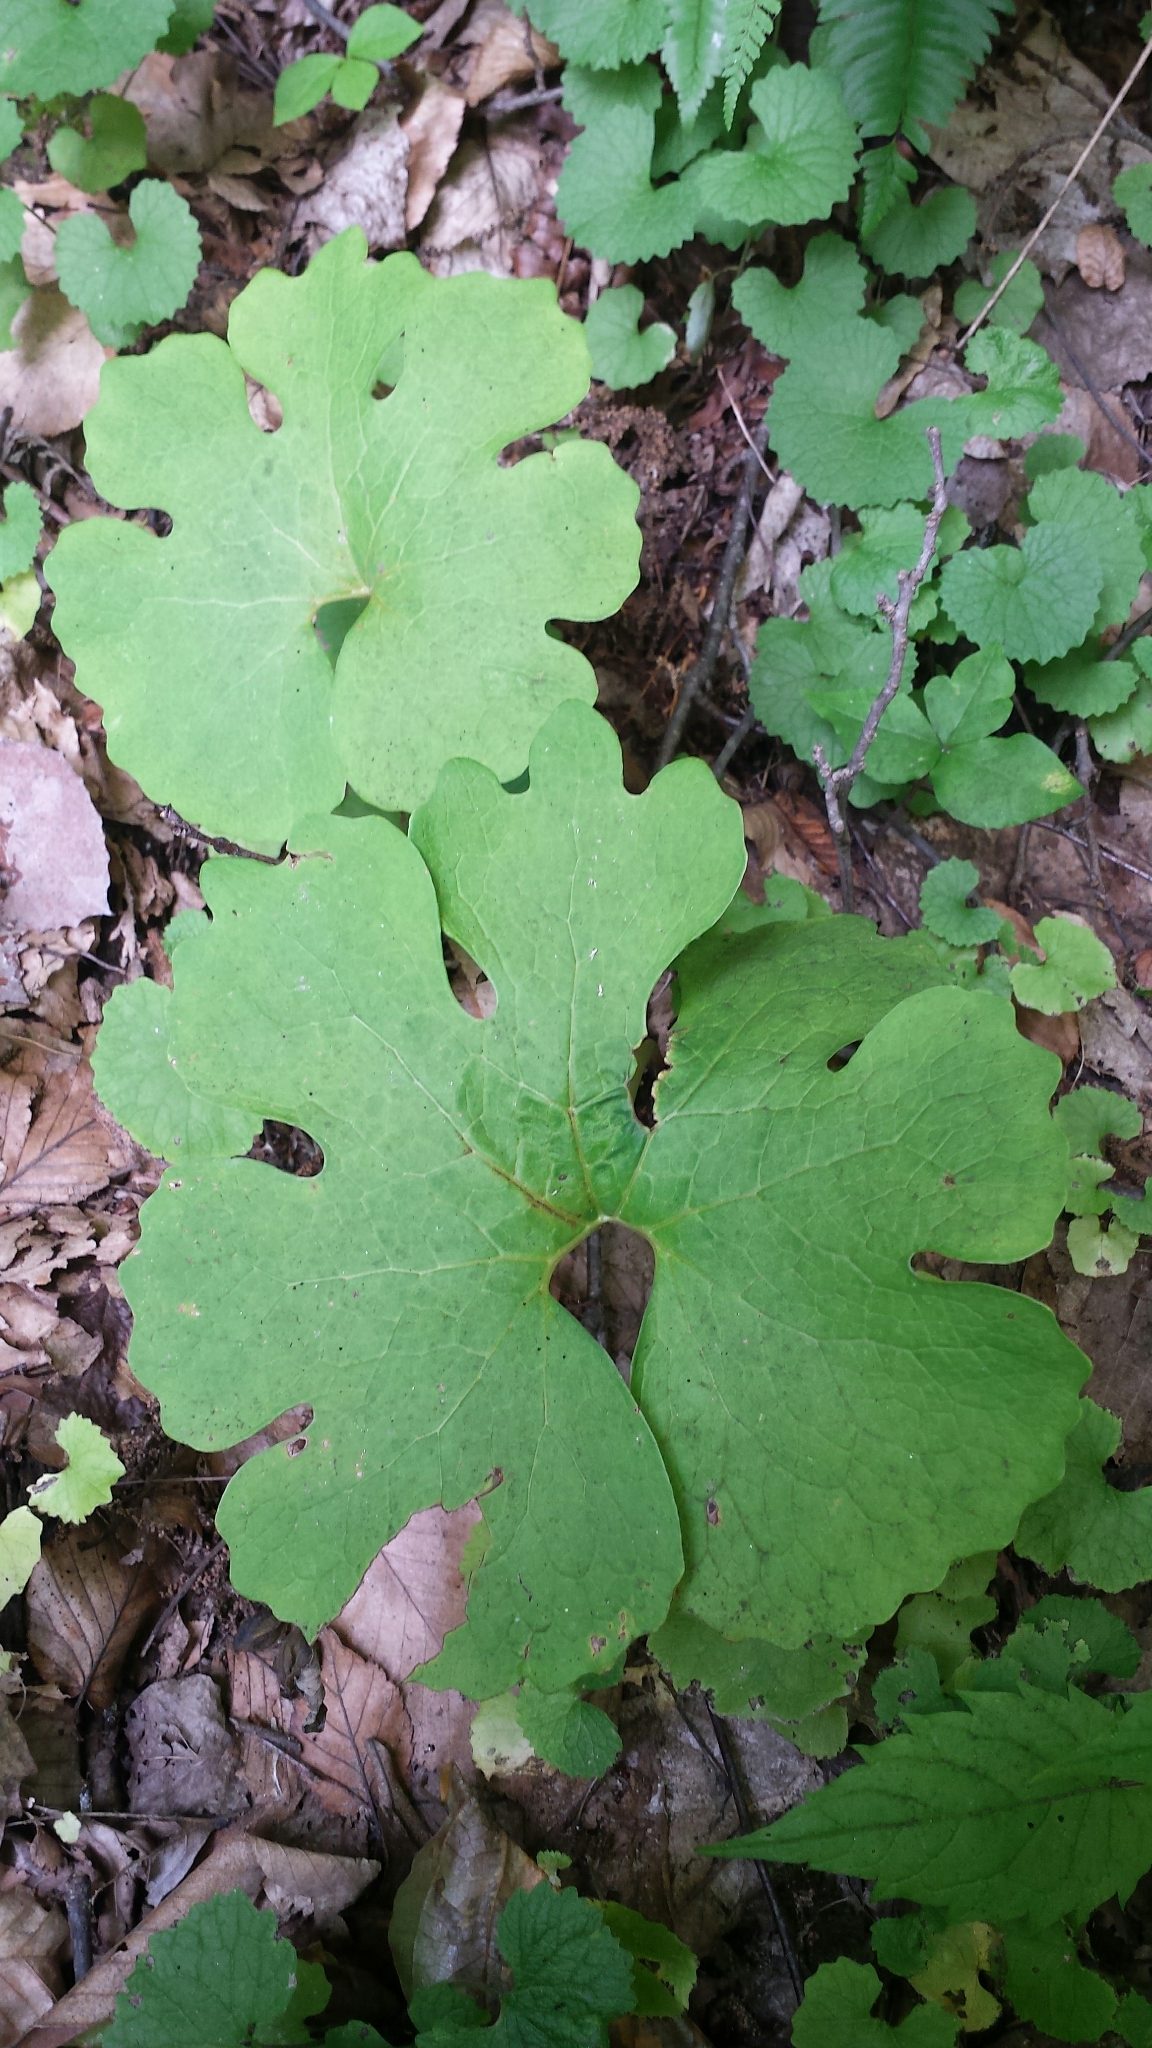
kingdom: Plantae
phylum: Tracheophyta
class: Magnoliopsida
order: Ranunculales
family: Papaveraceae
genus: Sanguinaria
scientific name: Sanguinaria canadensis
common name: Bloodroot
